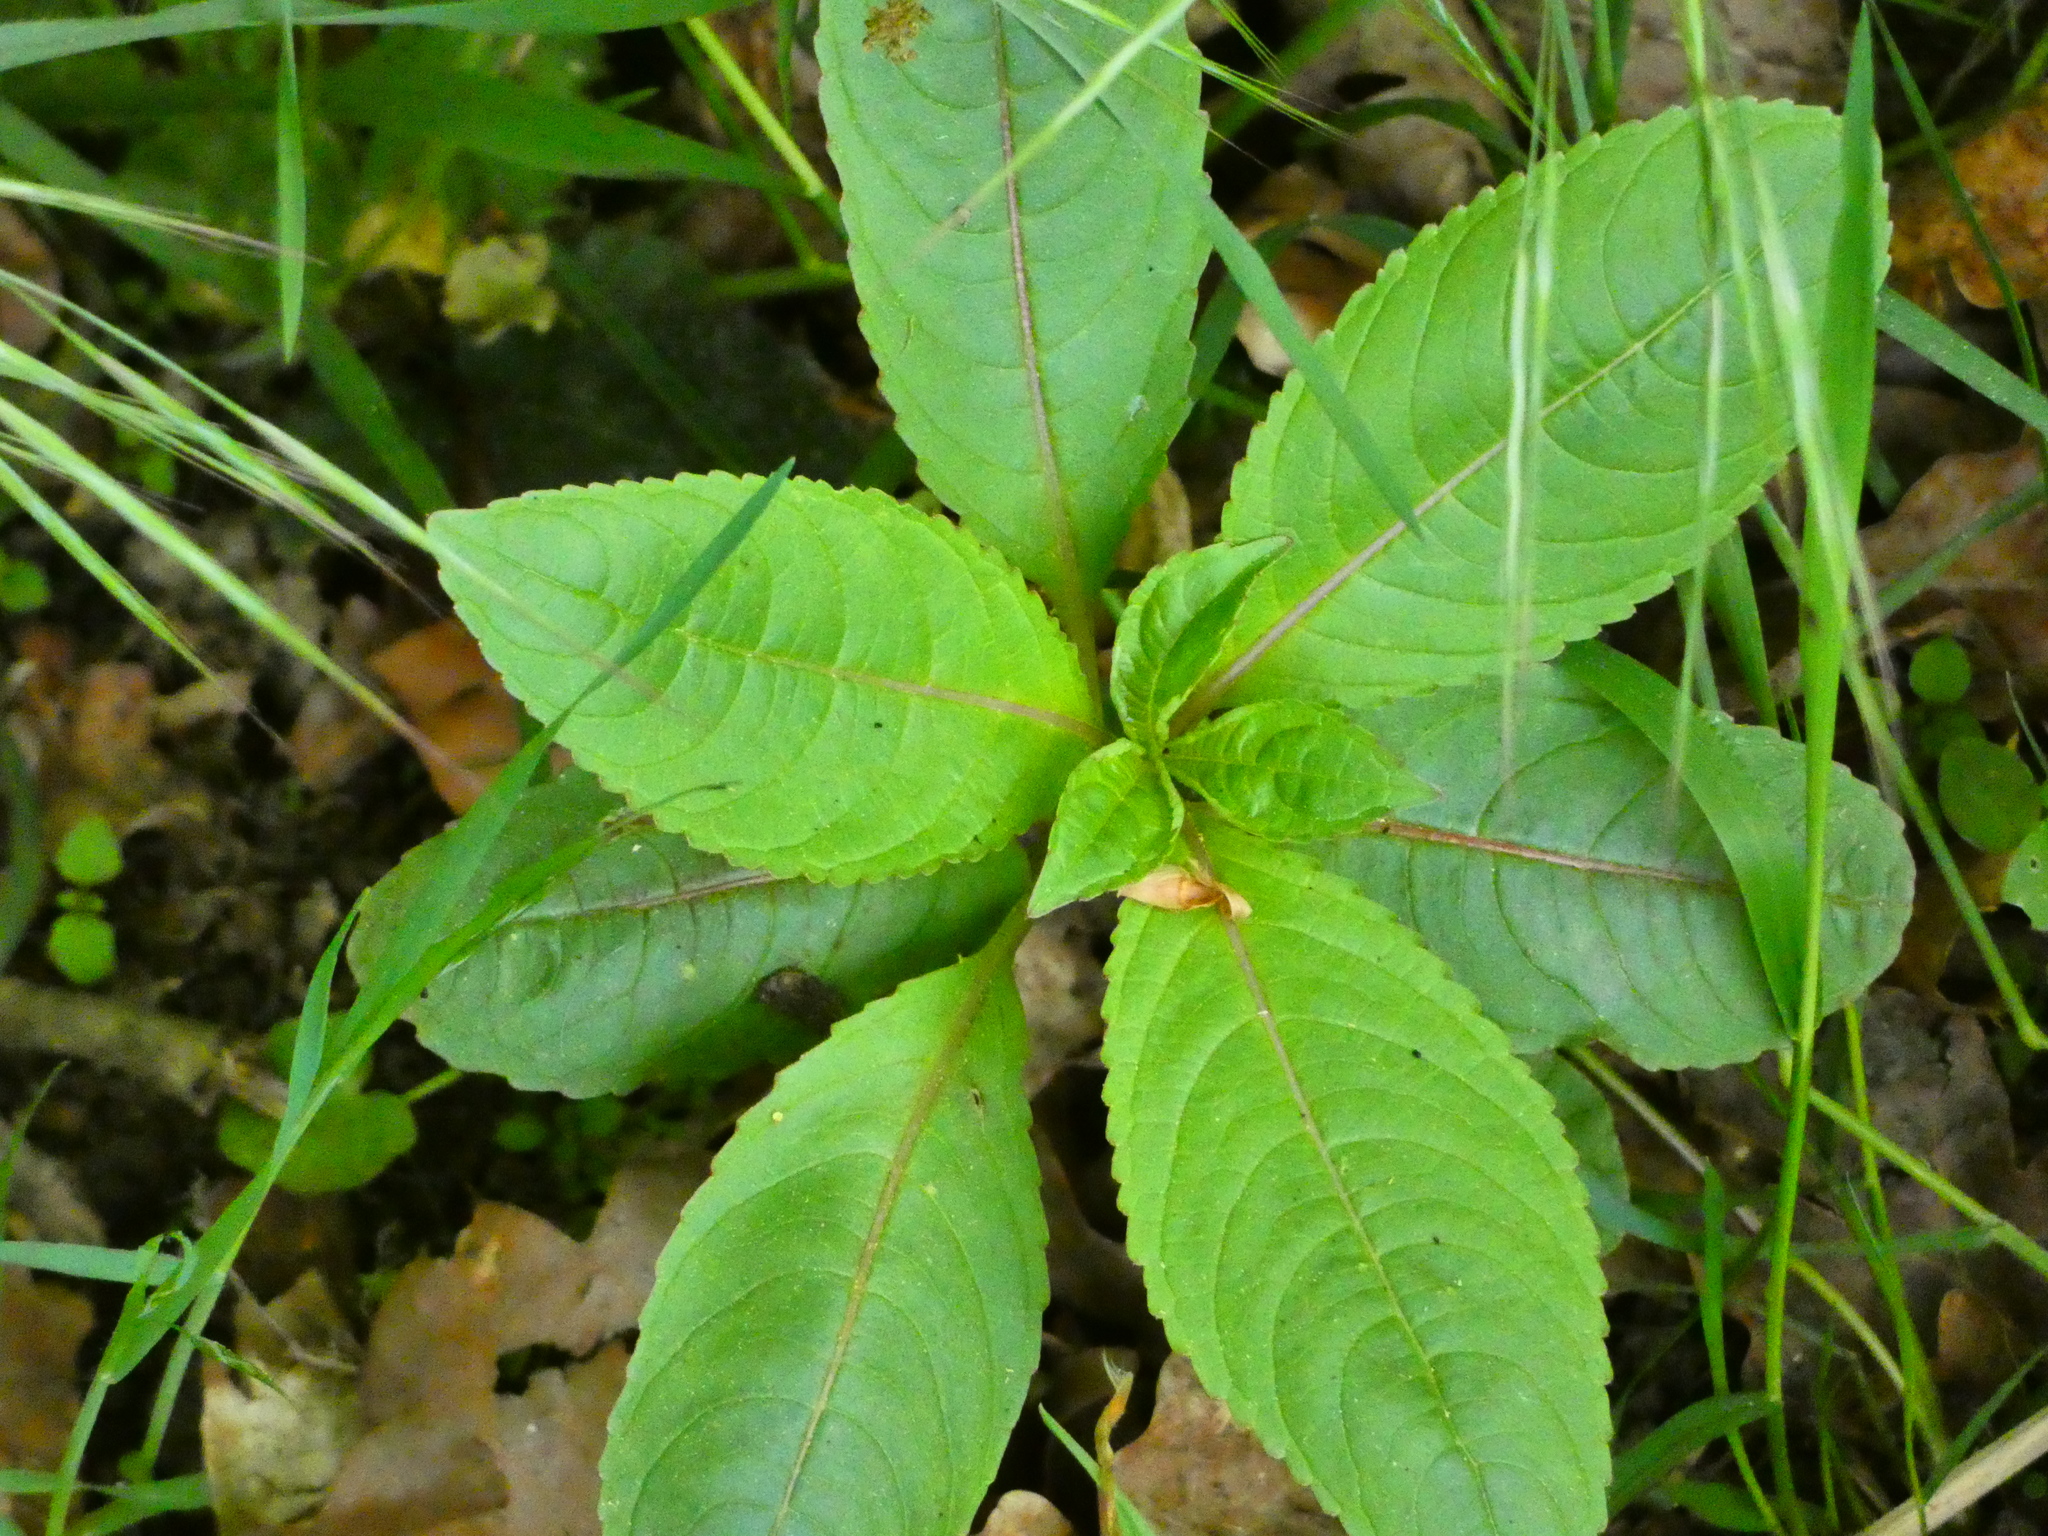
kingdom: Plantae
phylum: Tracheophyta
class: Magnoliopsida
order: Ericales
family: Balsaminaceae
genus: Impatiens
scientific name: Impatiens glandulifera
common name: Himalayan balsam
